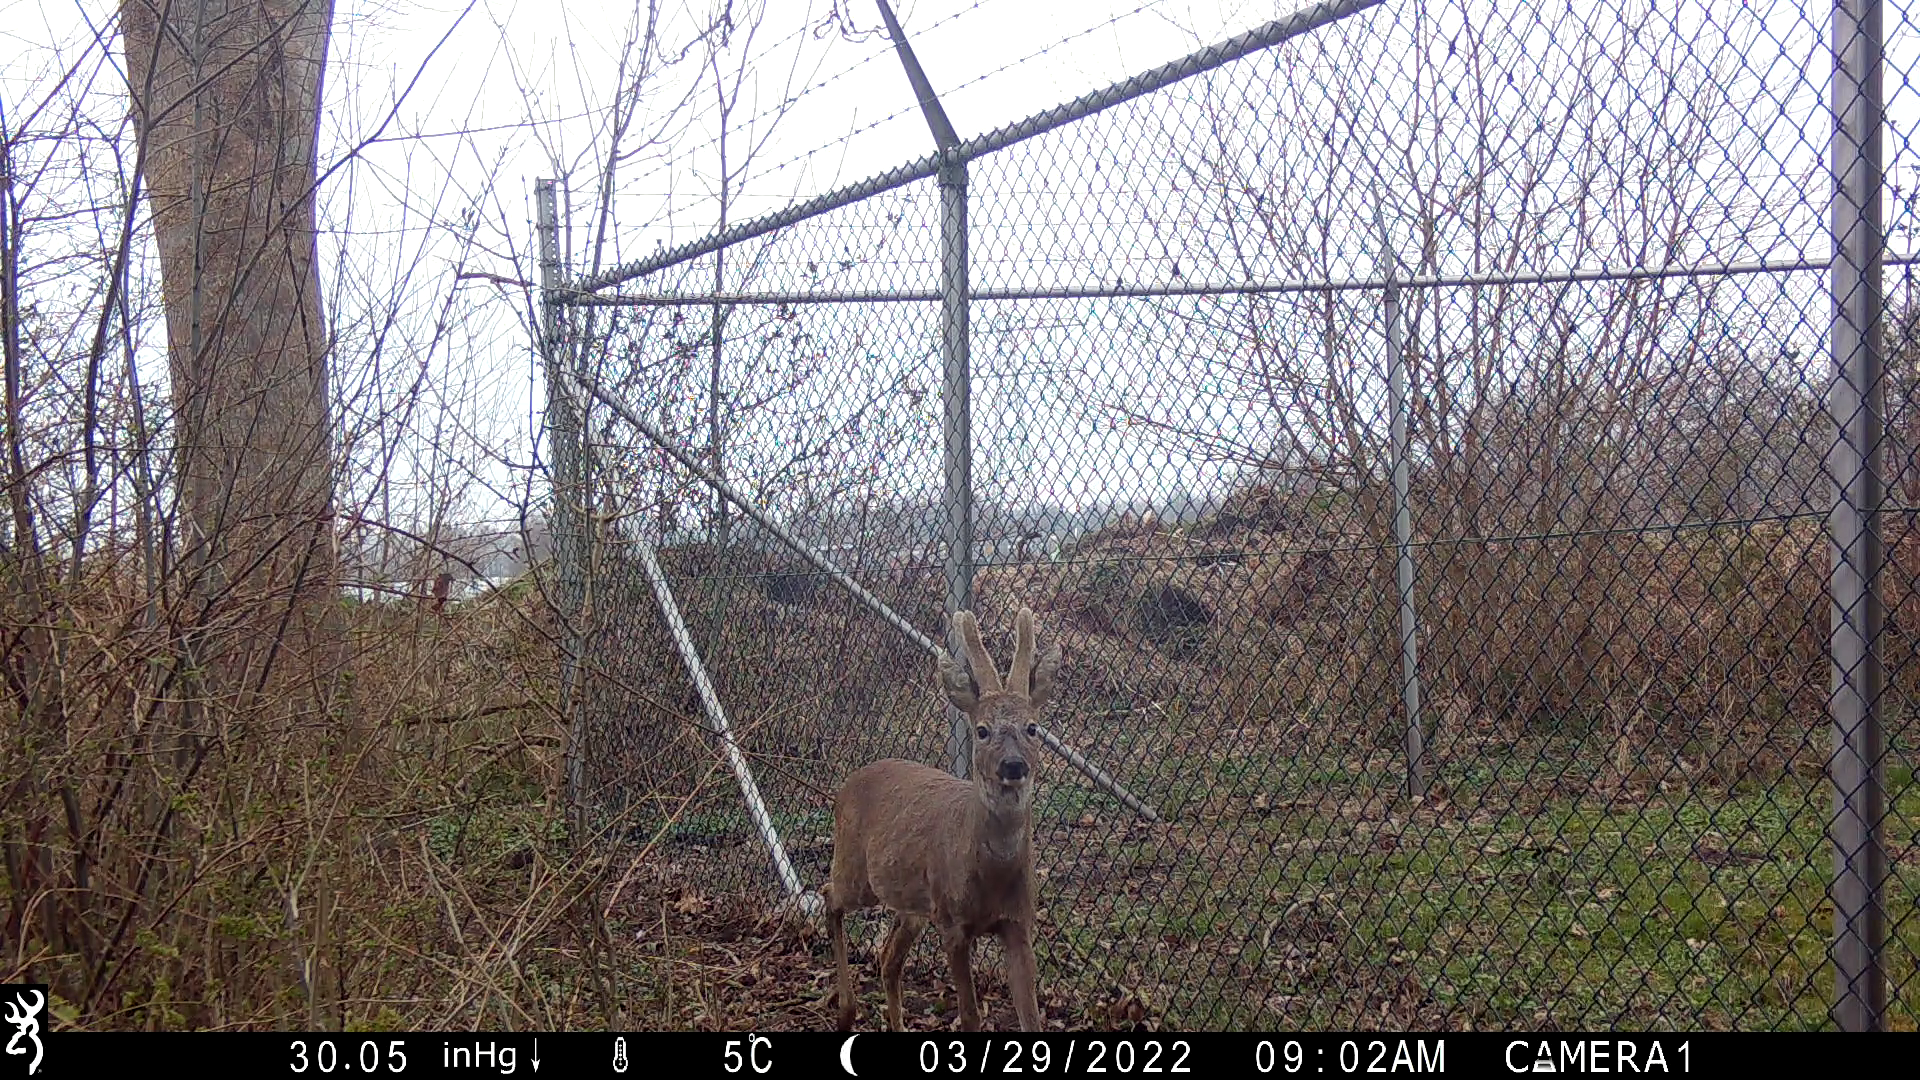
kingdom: Animalia
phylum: Chordata
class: Mammalia
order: Artiodactyla
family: Cervidae
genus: Capreolus
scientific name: Capreolus capreolus
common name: Western roe deer
